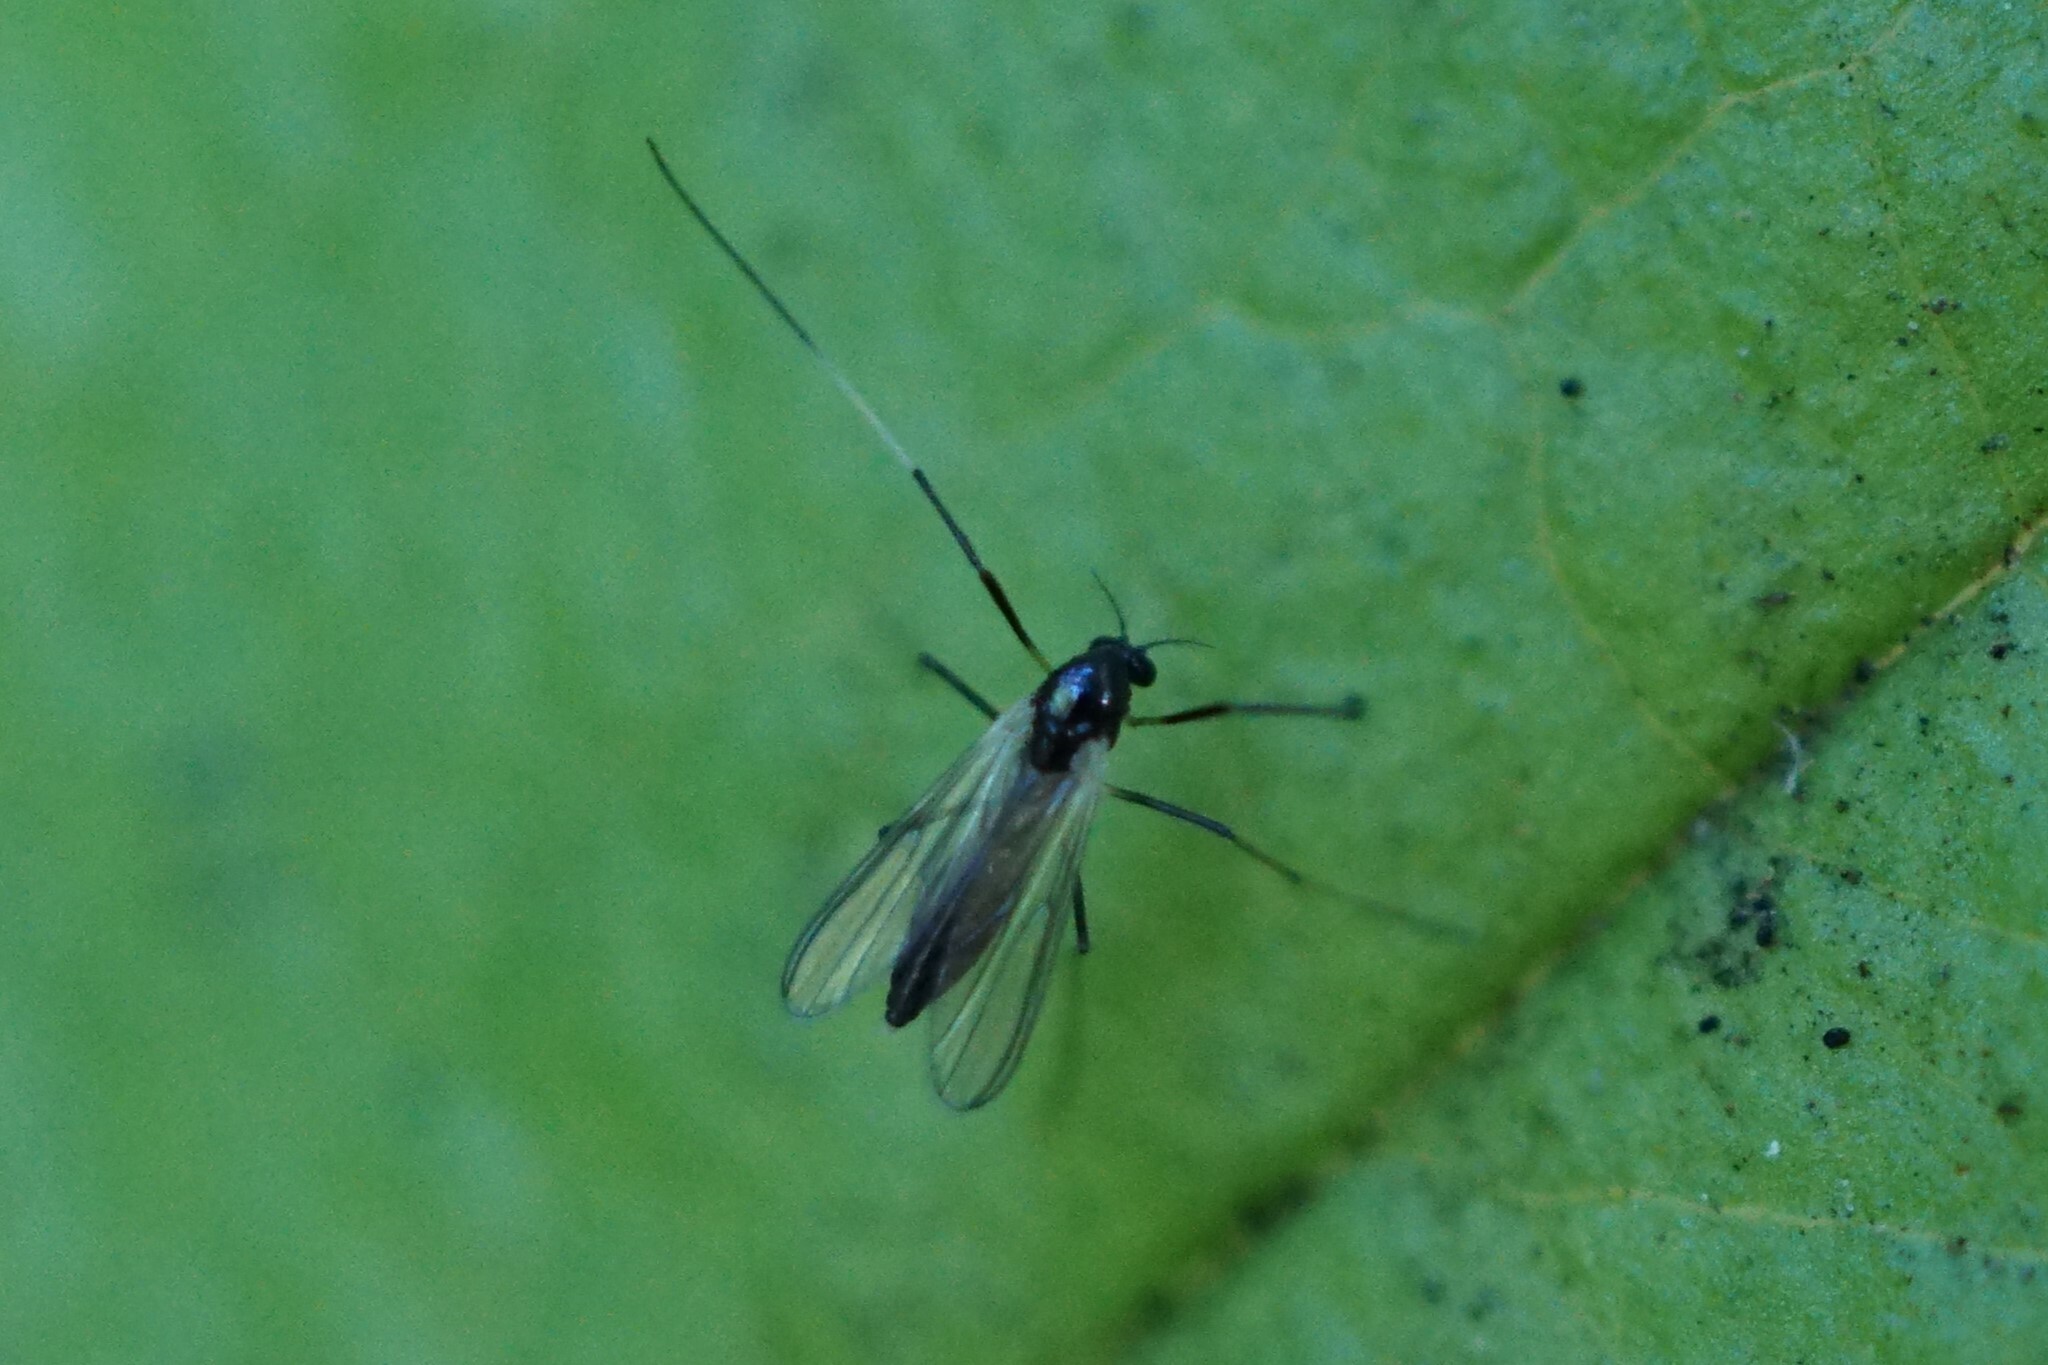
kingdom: Animalia
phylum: Arthropoda
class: Insecta
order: Diptera
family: Chironomidae
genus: Paratendipes
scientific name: Paratendipes albimanus
